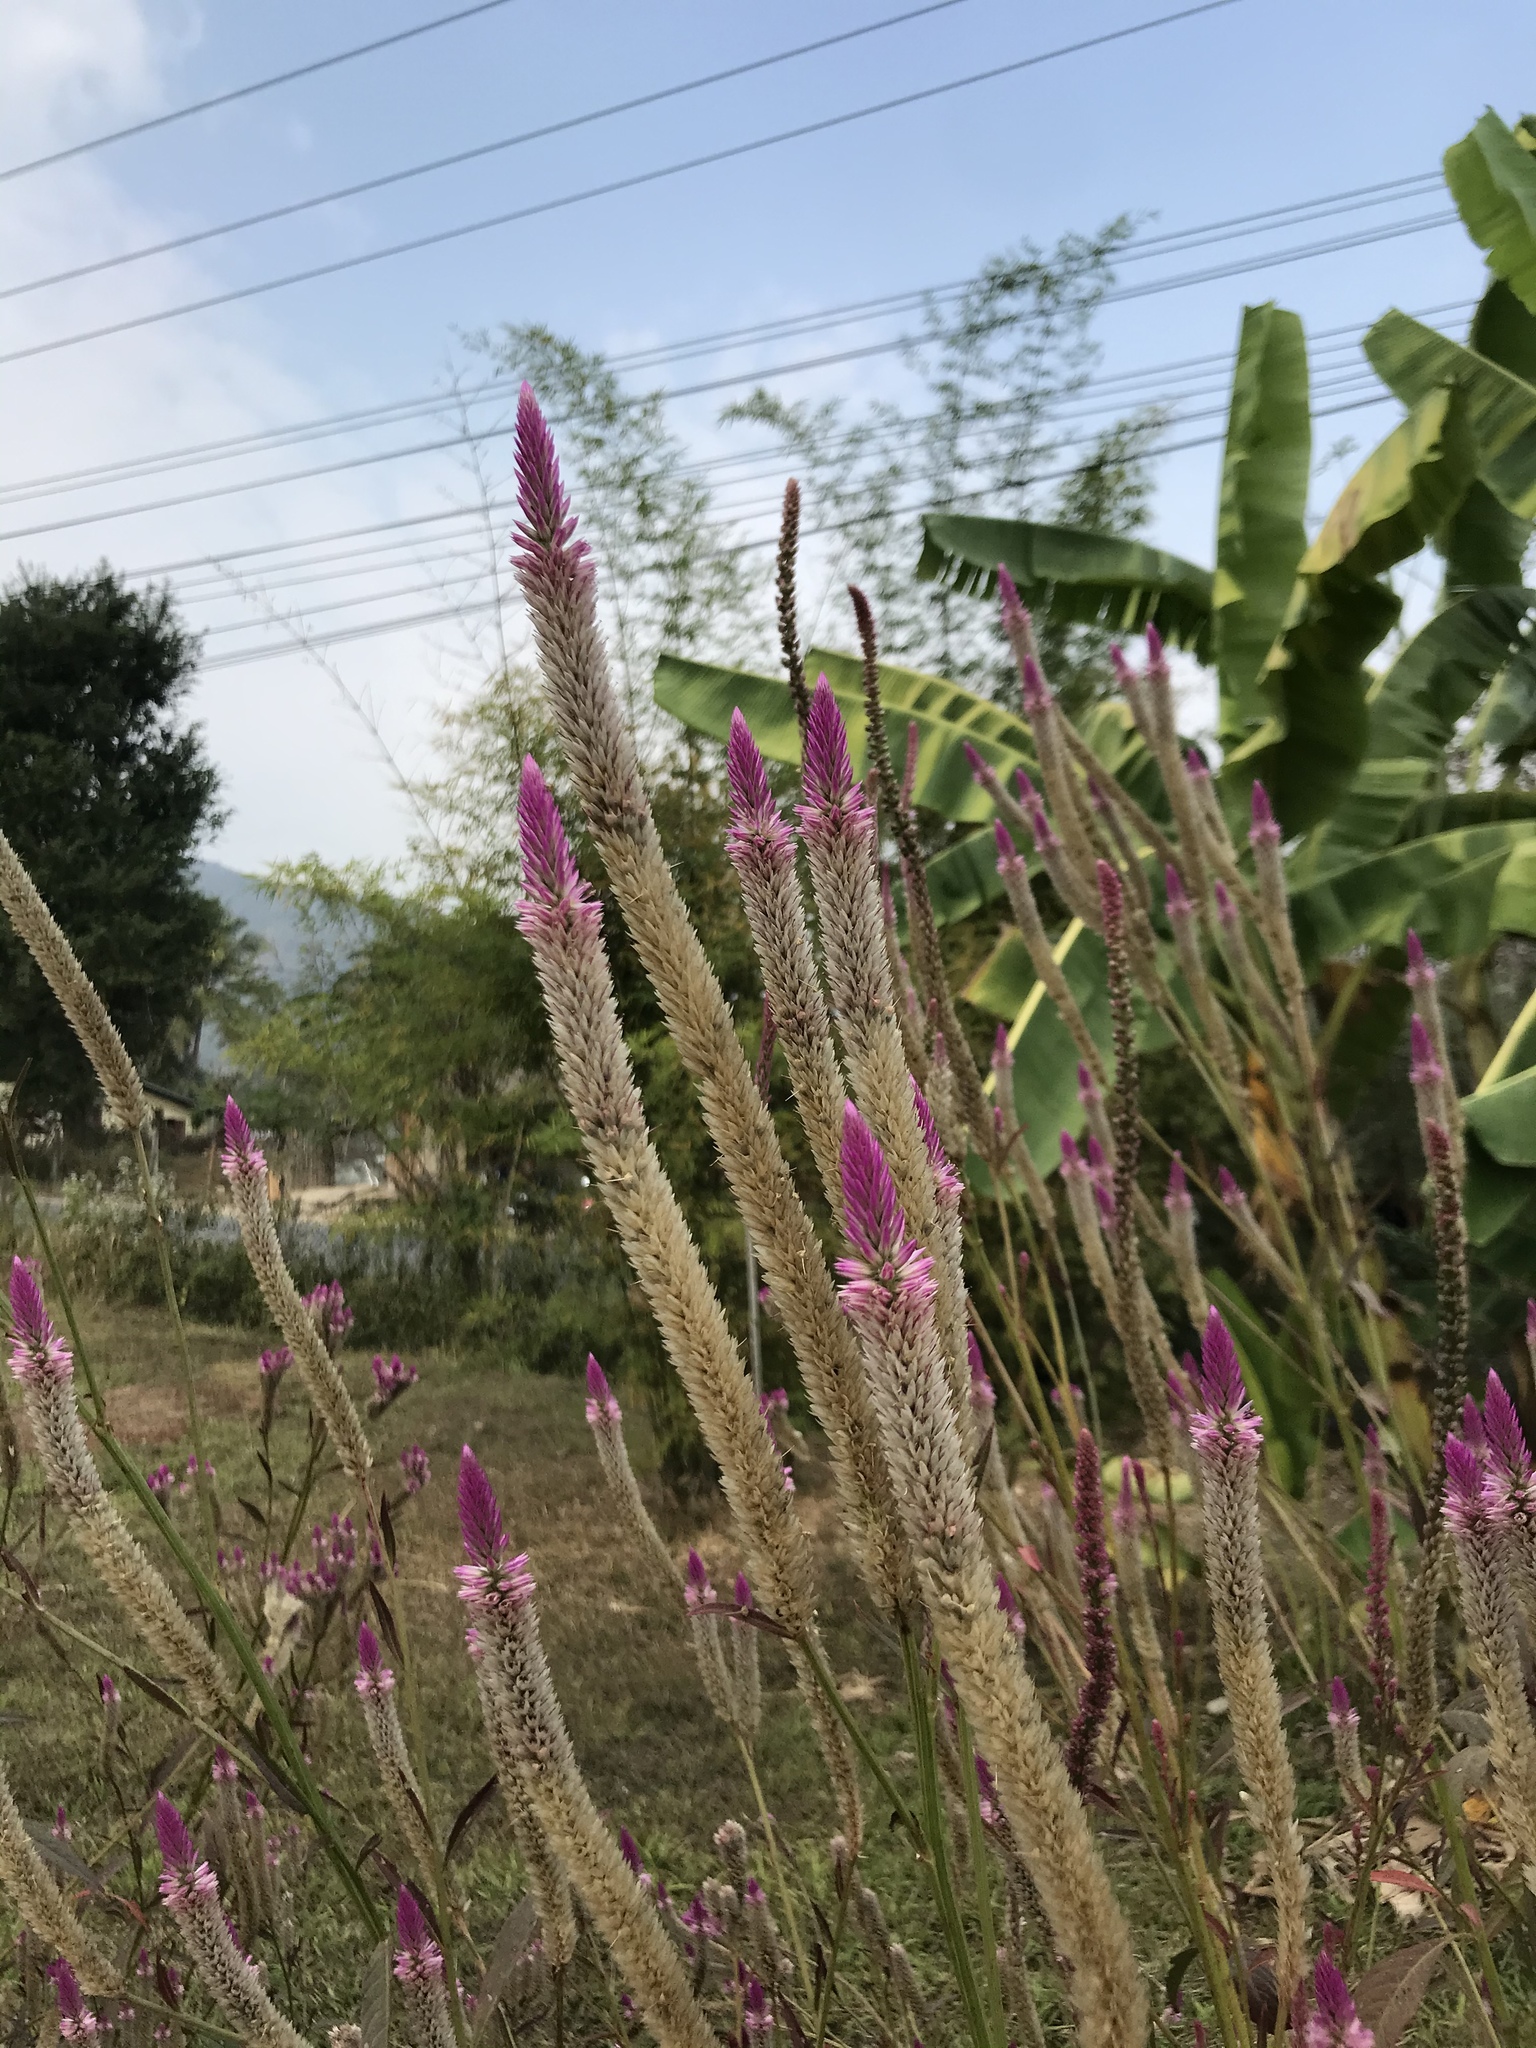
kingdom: Plantae
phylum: Tracheophyta
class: Magnoliopsida
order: Caryophyllales
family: Amaranthaceae
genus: Celosia
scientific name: Celosia argentea
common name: Feather cockscomb
